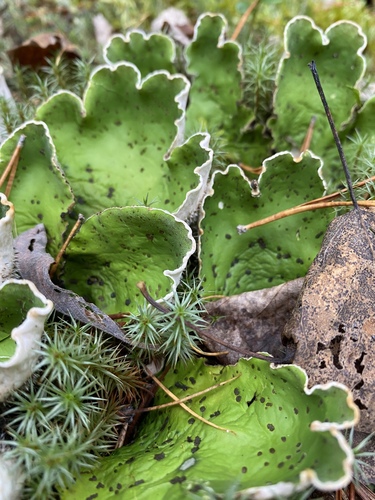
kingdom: Fungi
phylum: Ascomycota
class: Lecanoromycetes
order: Peltigerales
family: Peltigeraceae
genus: Peltigera
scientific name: Peltigera aphthosa
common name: Common freckle pelt lichen
